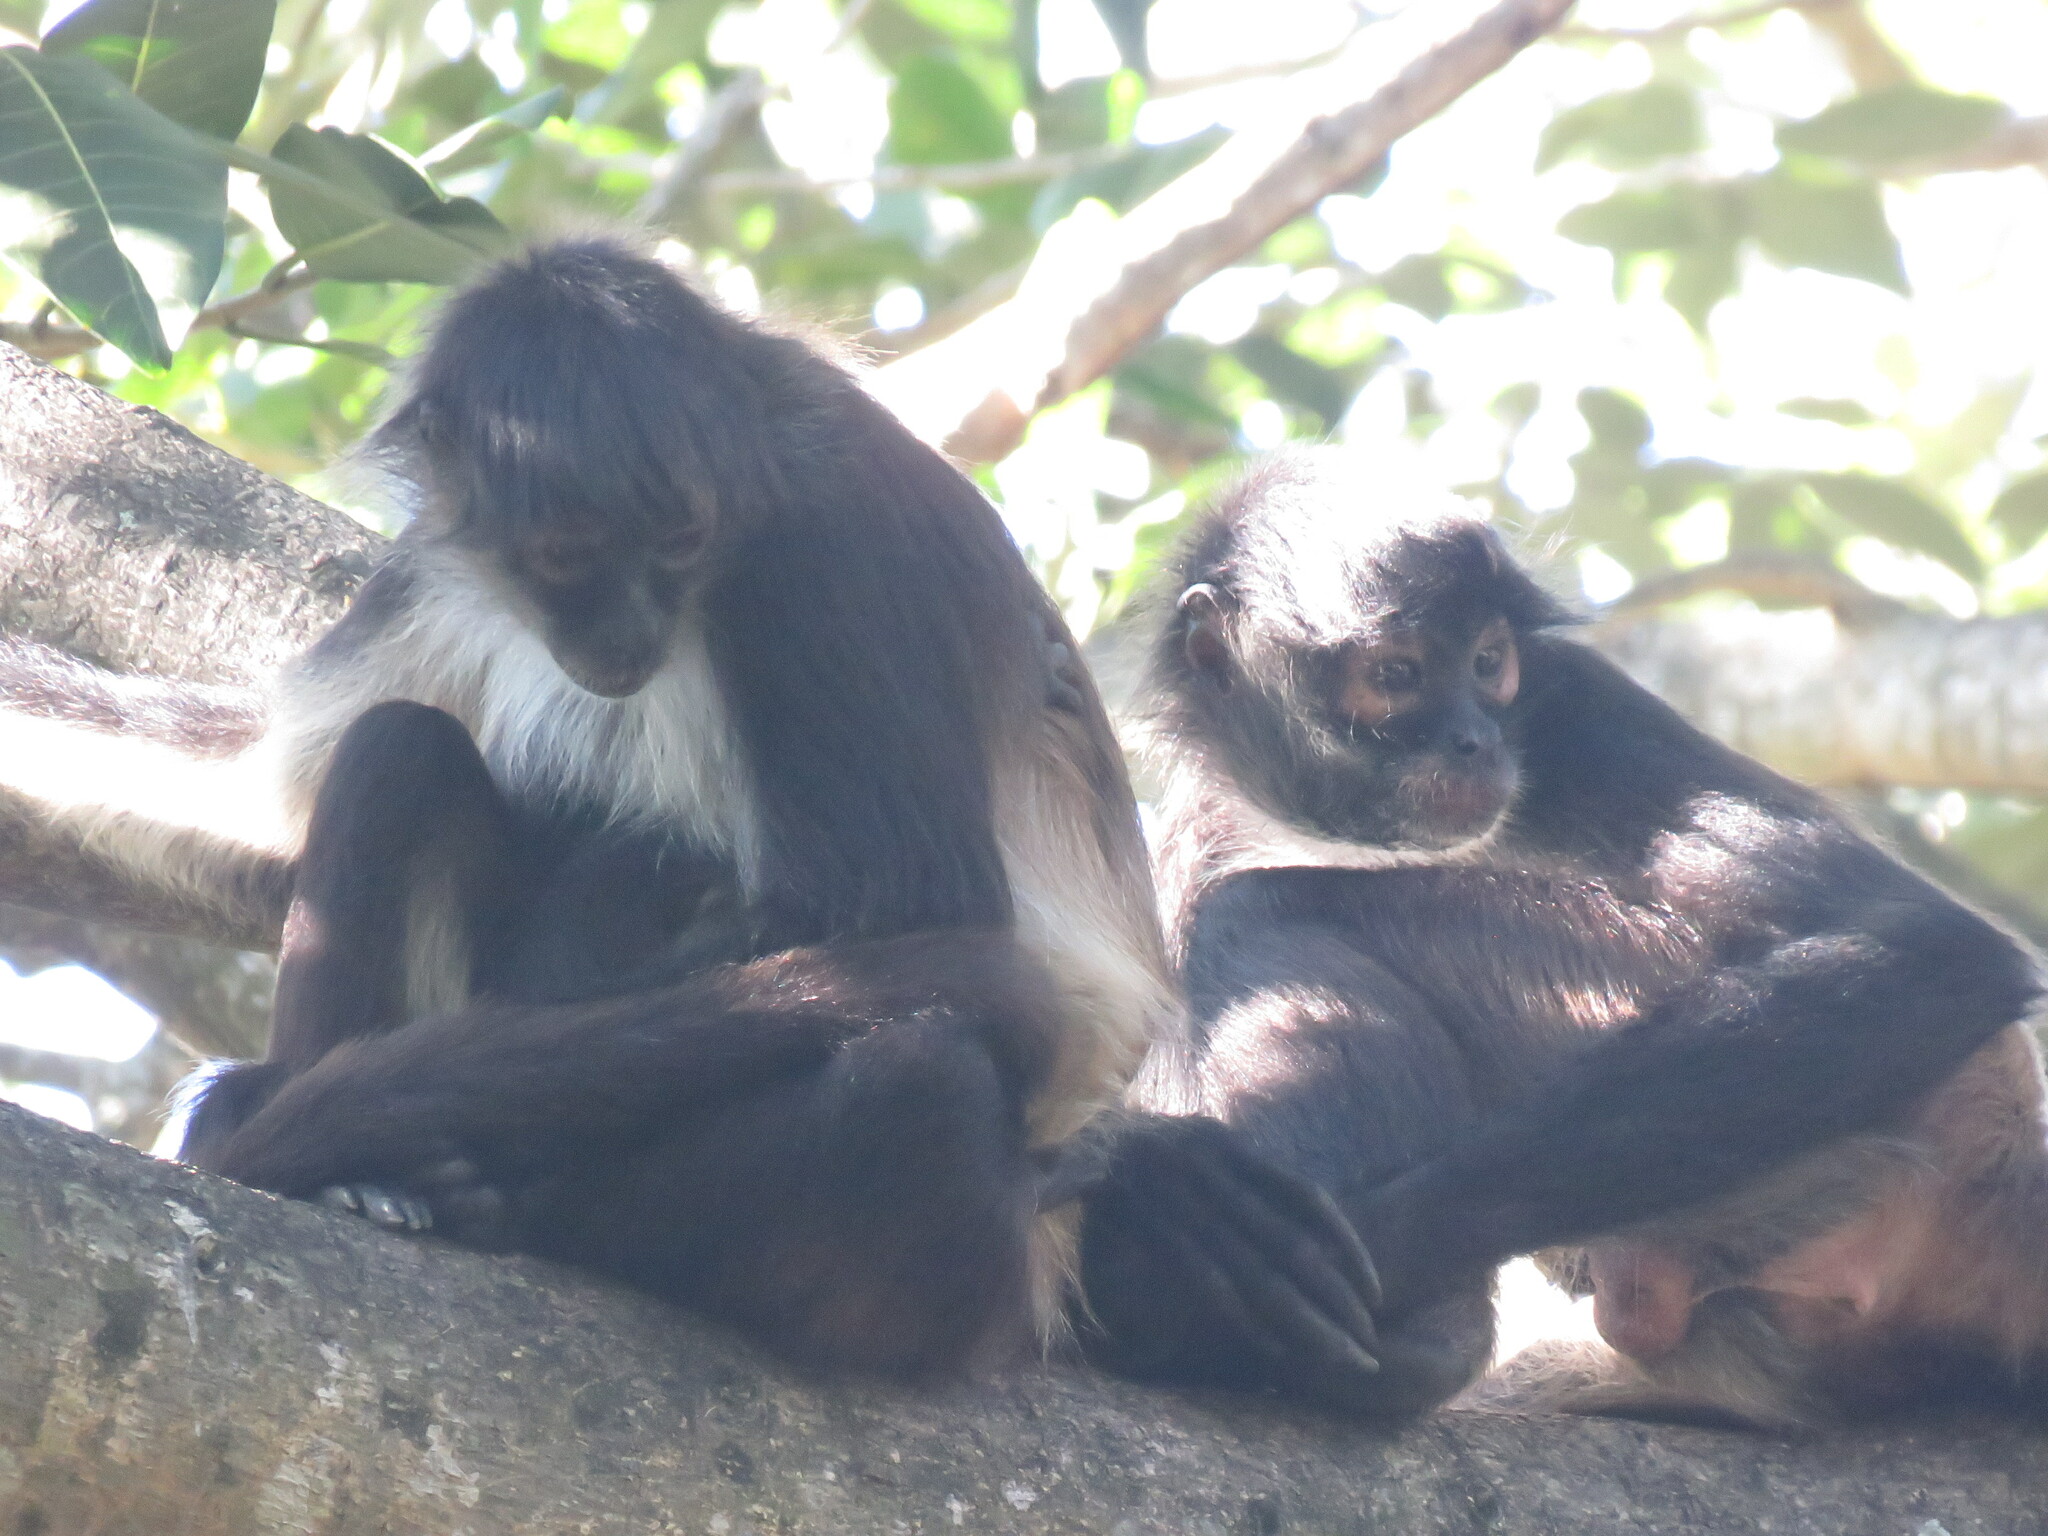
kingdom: Animalia
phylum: Chordata
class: Mammalia
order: Primates
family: Atelidae
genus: Ateles
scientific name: Ateles geoffroyi
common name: Black-handed spider monkey
